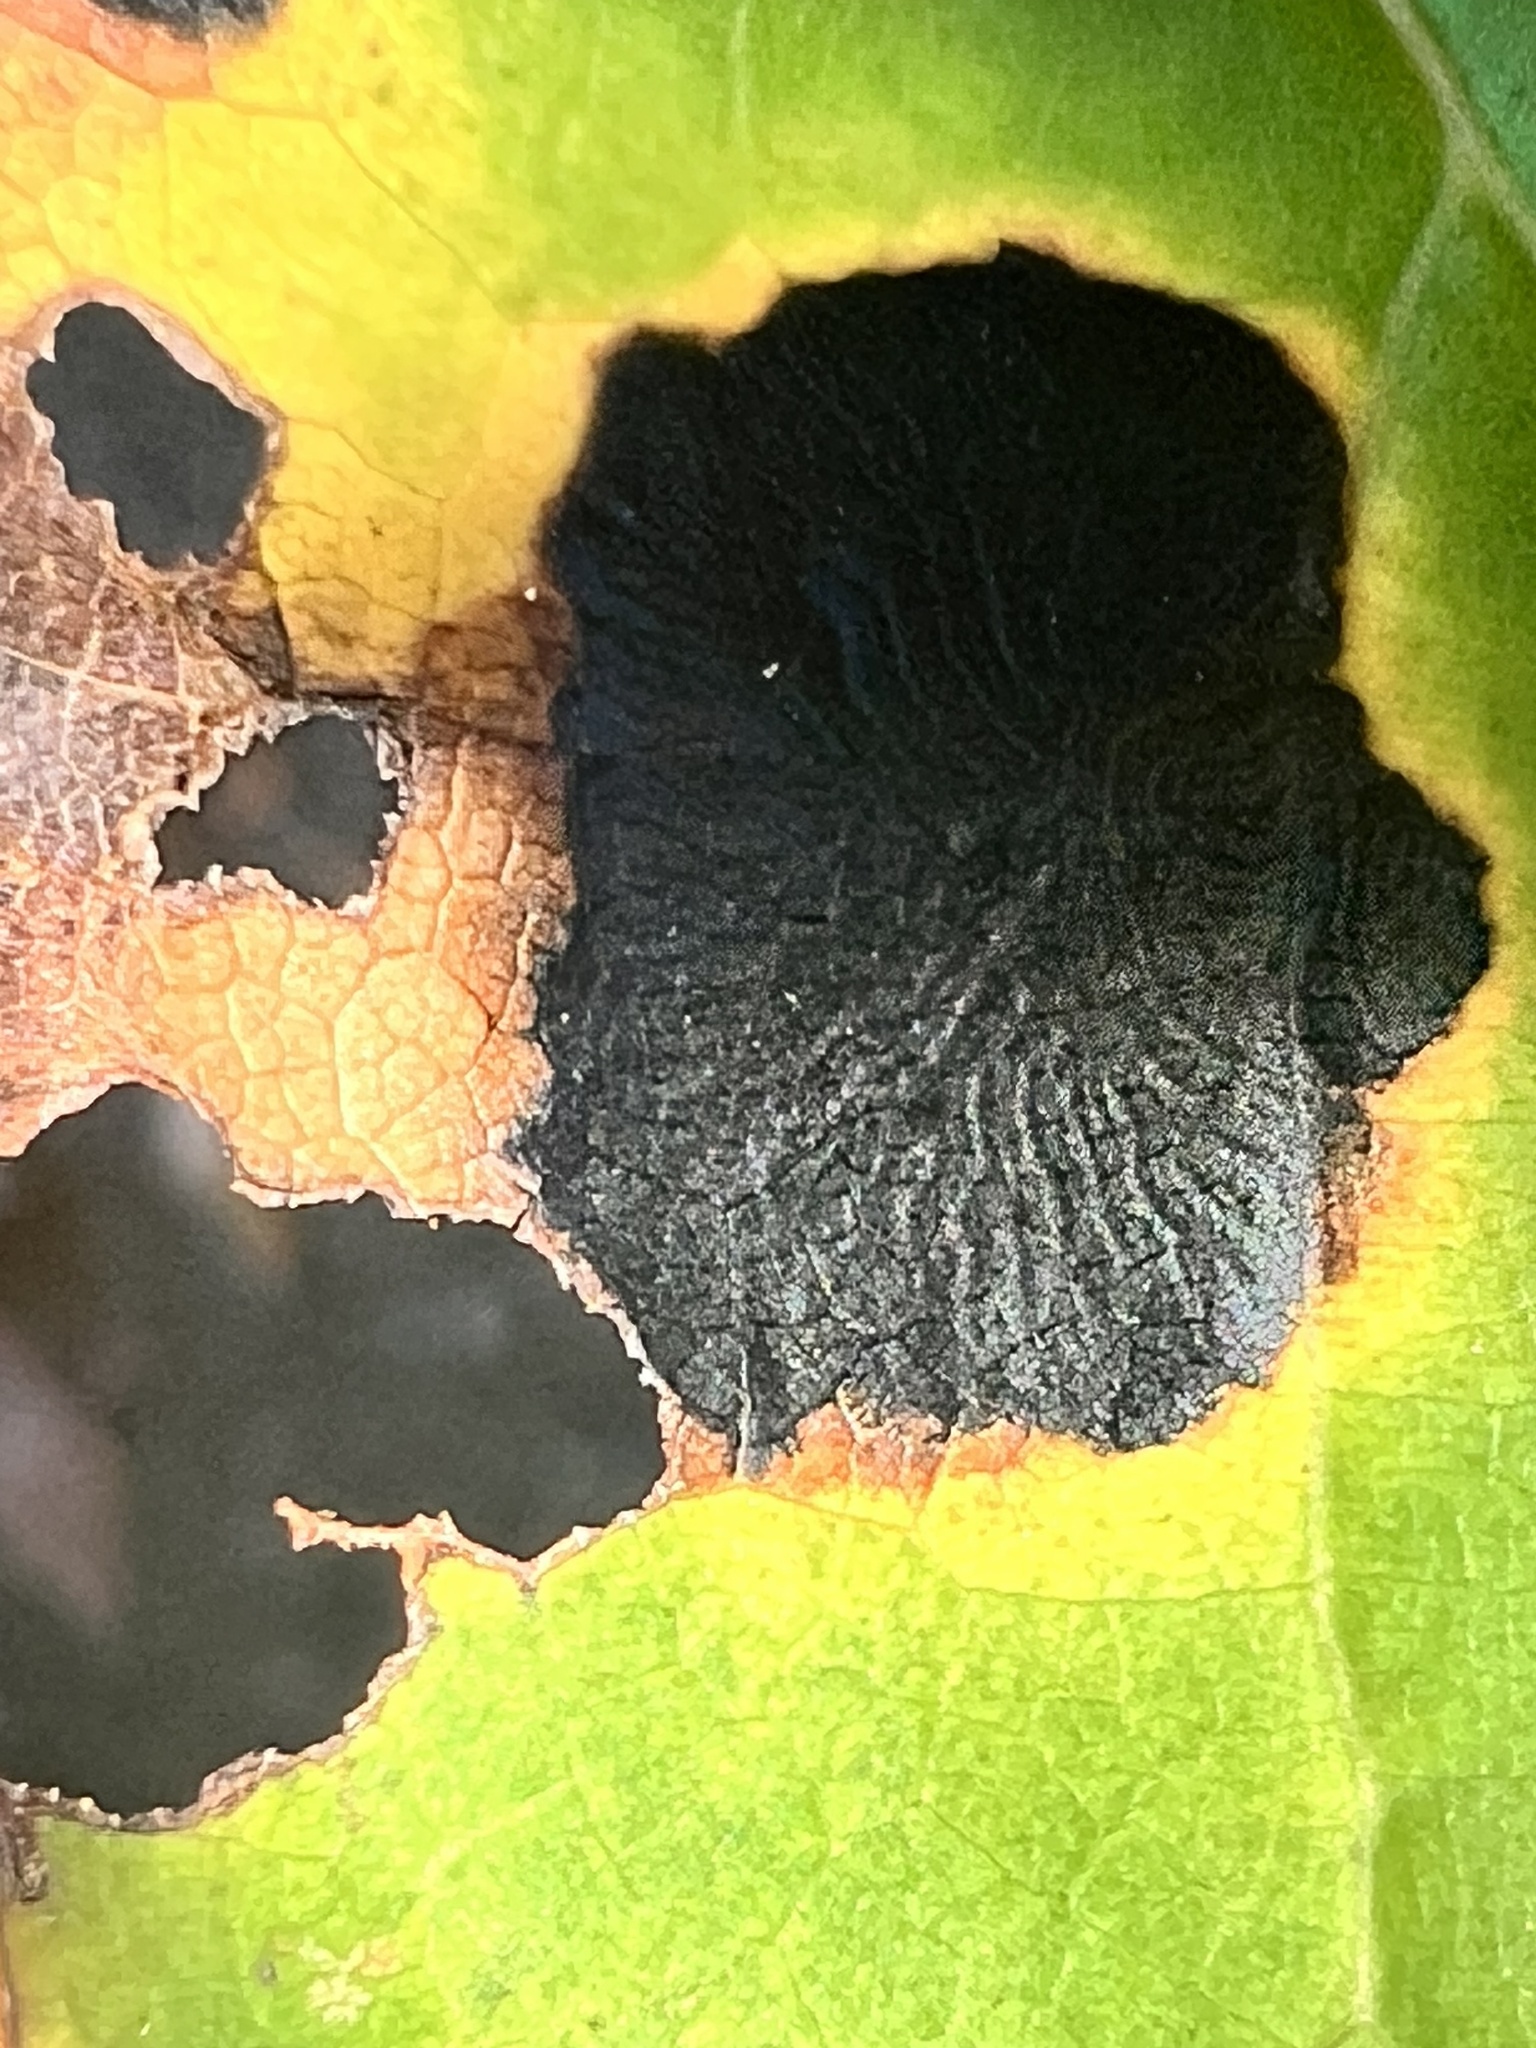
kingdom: Fungi
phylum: Ascomycota
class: Leotiomycetes
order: Rhytismatales
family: Rhytismataceae
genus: Rhytisma
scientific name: Rhytisma americanum
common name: American tar spot
